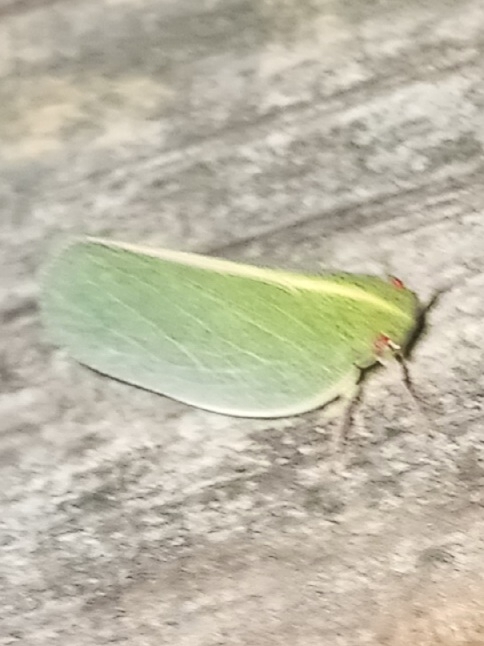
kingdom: Animalia
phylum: Arthropoda
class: Insecta
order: Hemiptera
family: Acanaloniidae
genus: Acanalonia
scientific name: Acanalonia servillei
